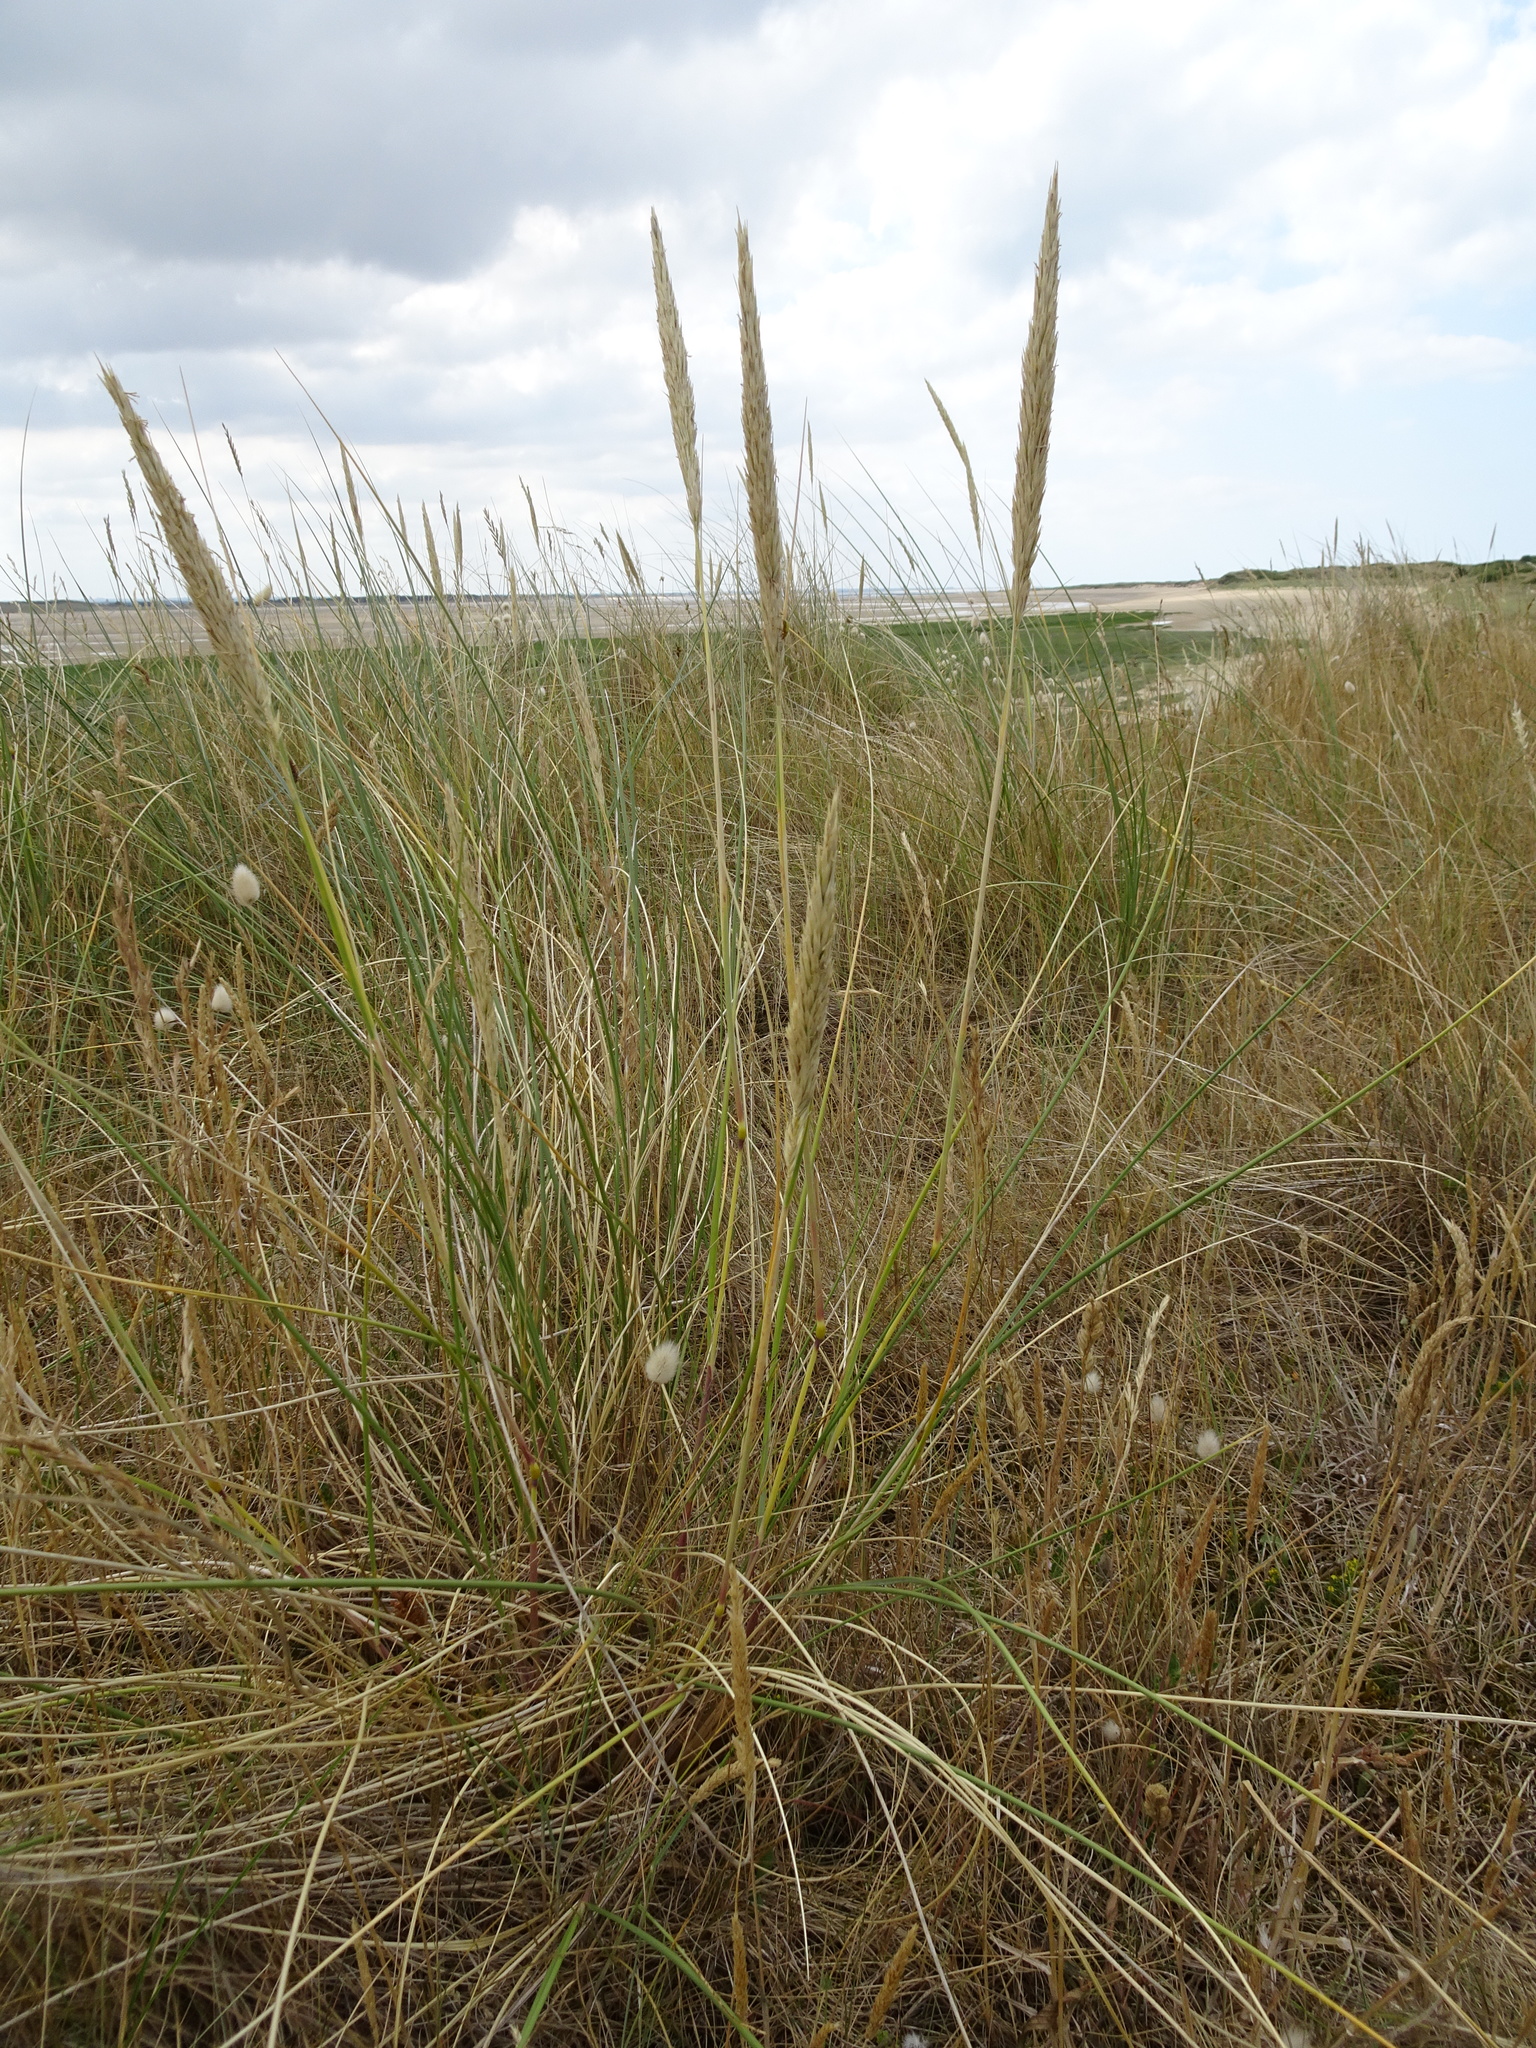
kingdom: Plantae
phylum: Tracheophyta
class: Liliopsida
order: Poales
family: Poaceae
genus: Calamagrostis
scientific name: Calamagrostis arenaria
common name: European beachgrass
